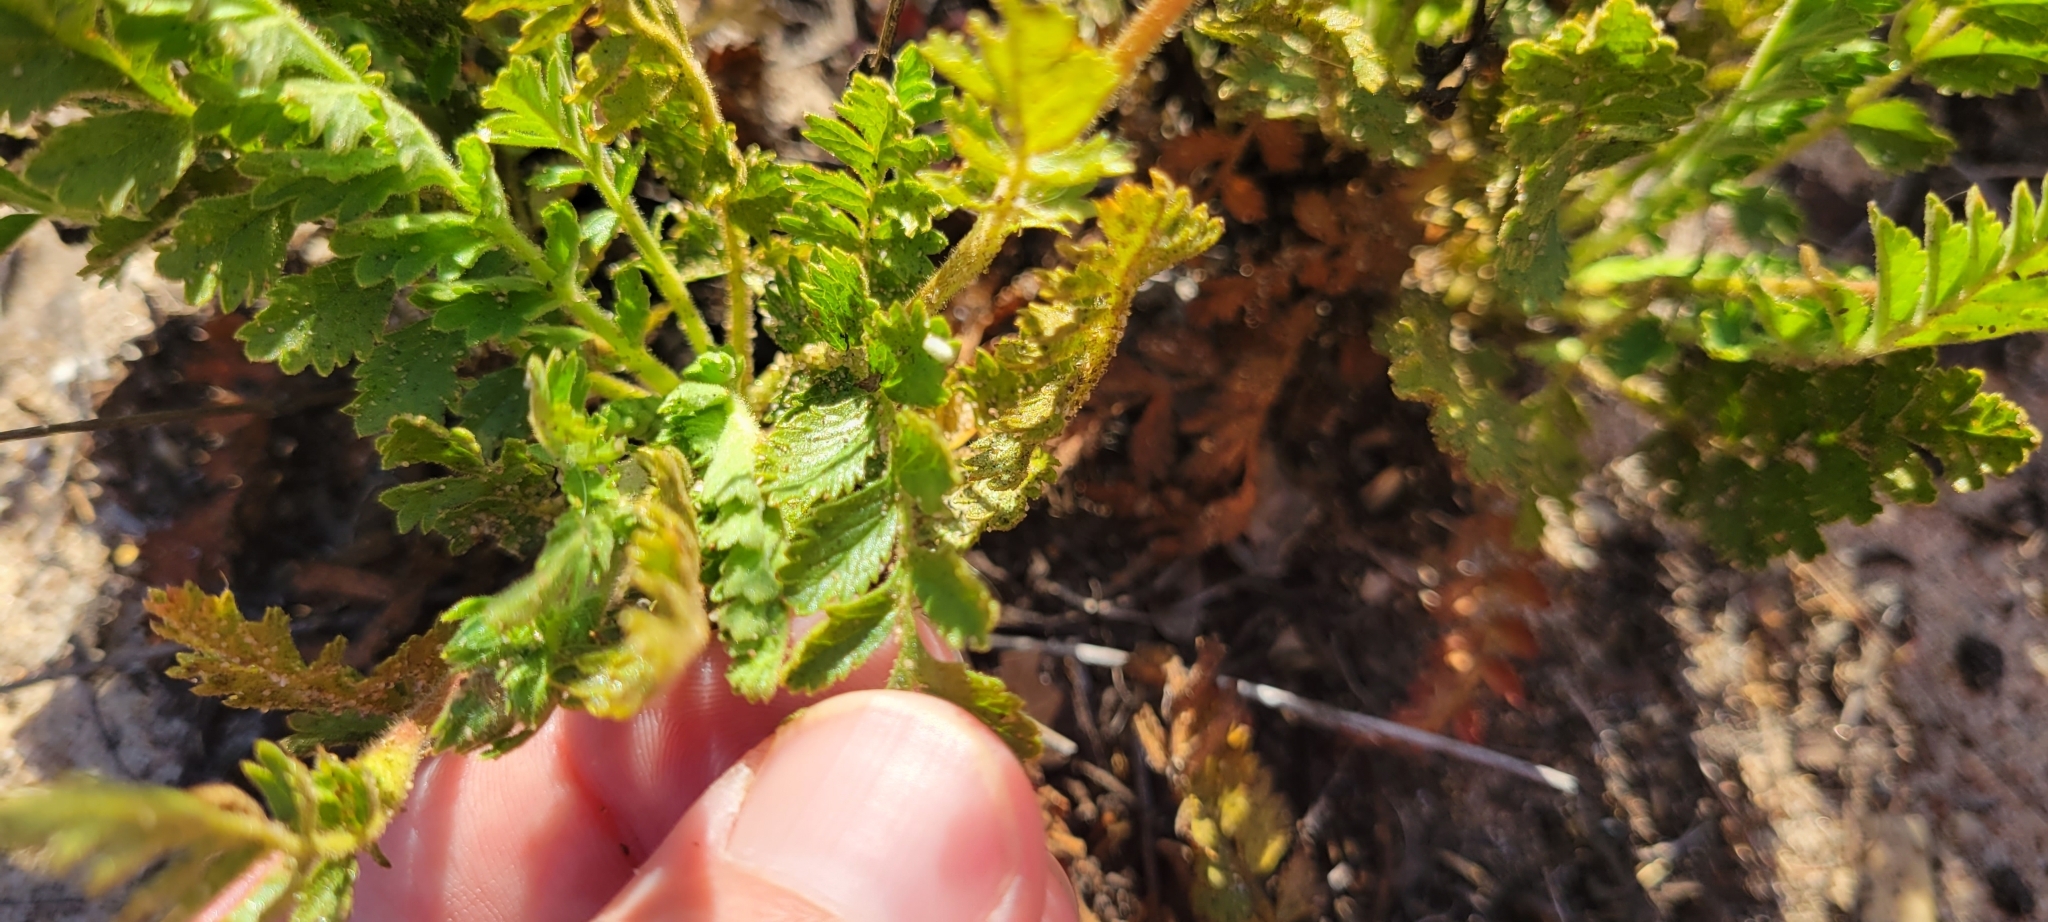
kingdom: Plantae
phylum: Tracheophyta
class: Magnoliopsida
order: Rosales
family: Rosaceae
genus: Potentilla
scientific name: Potentilla lindleyi
